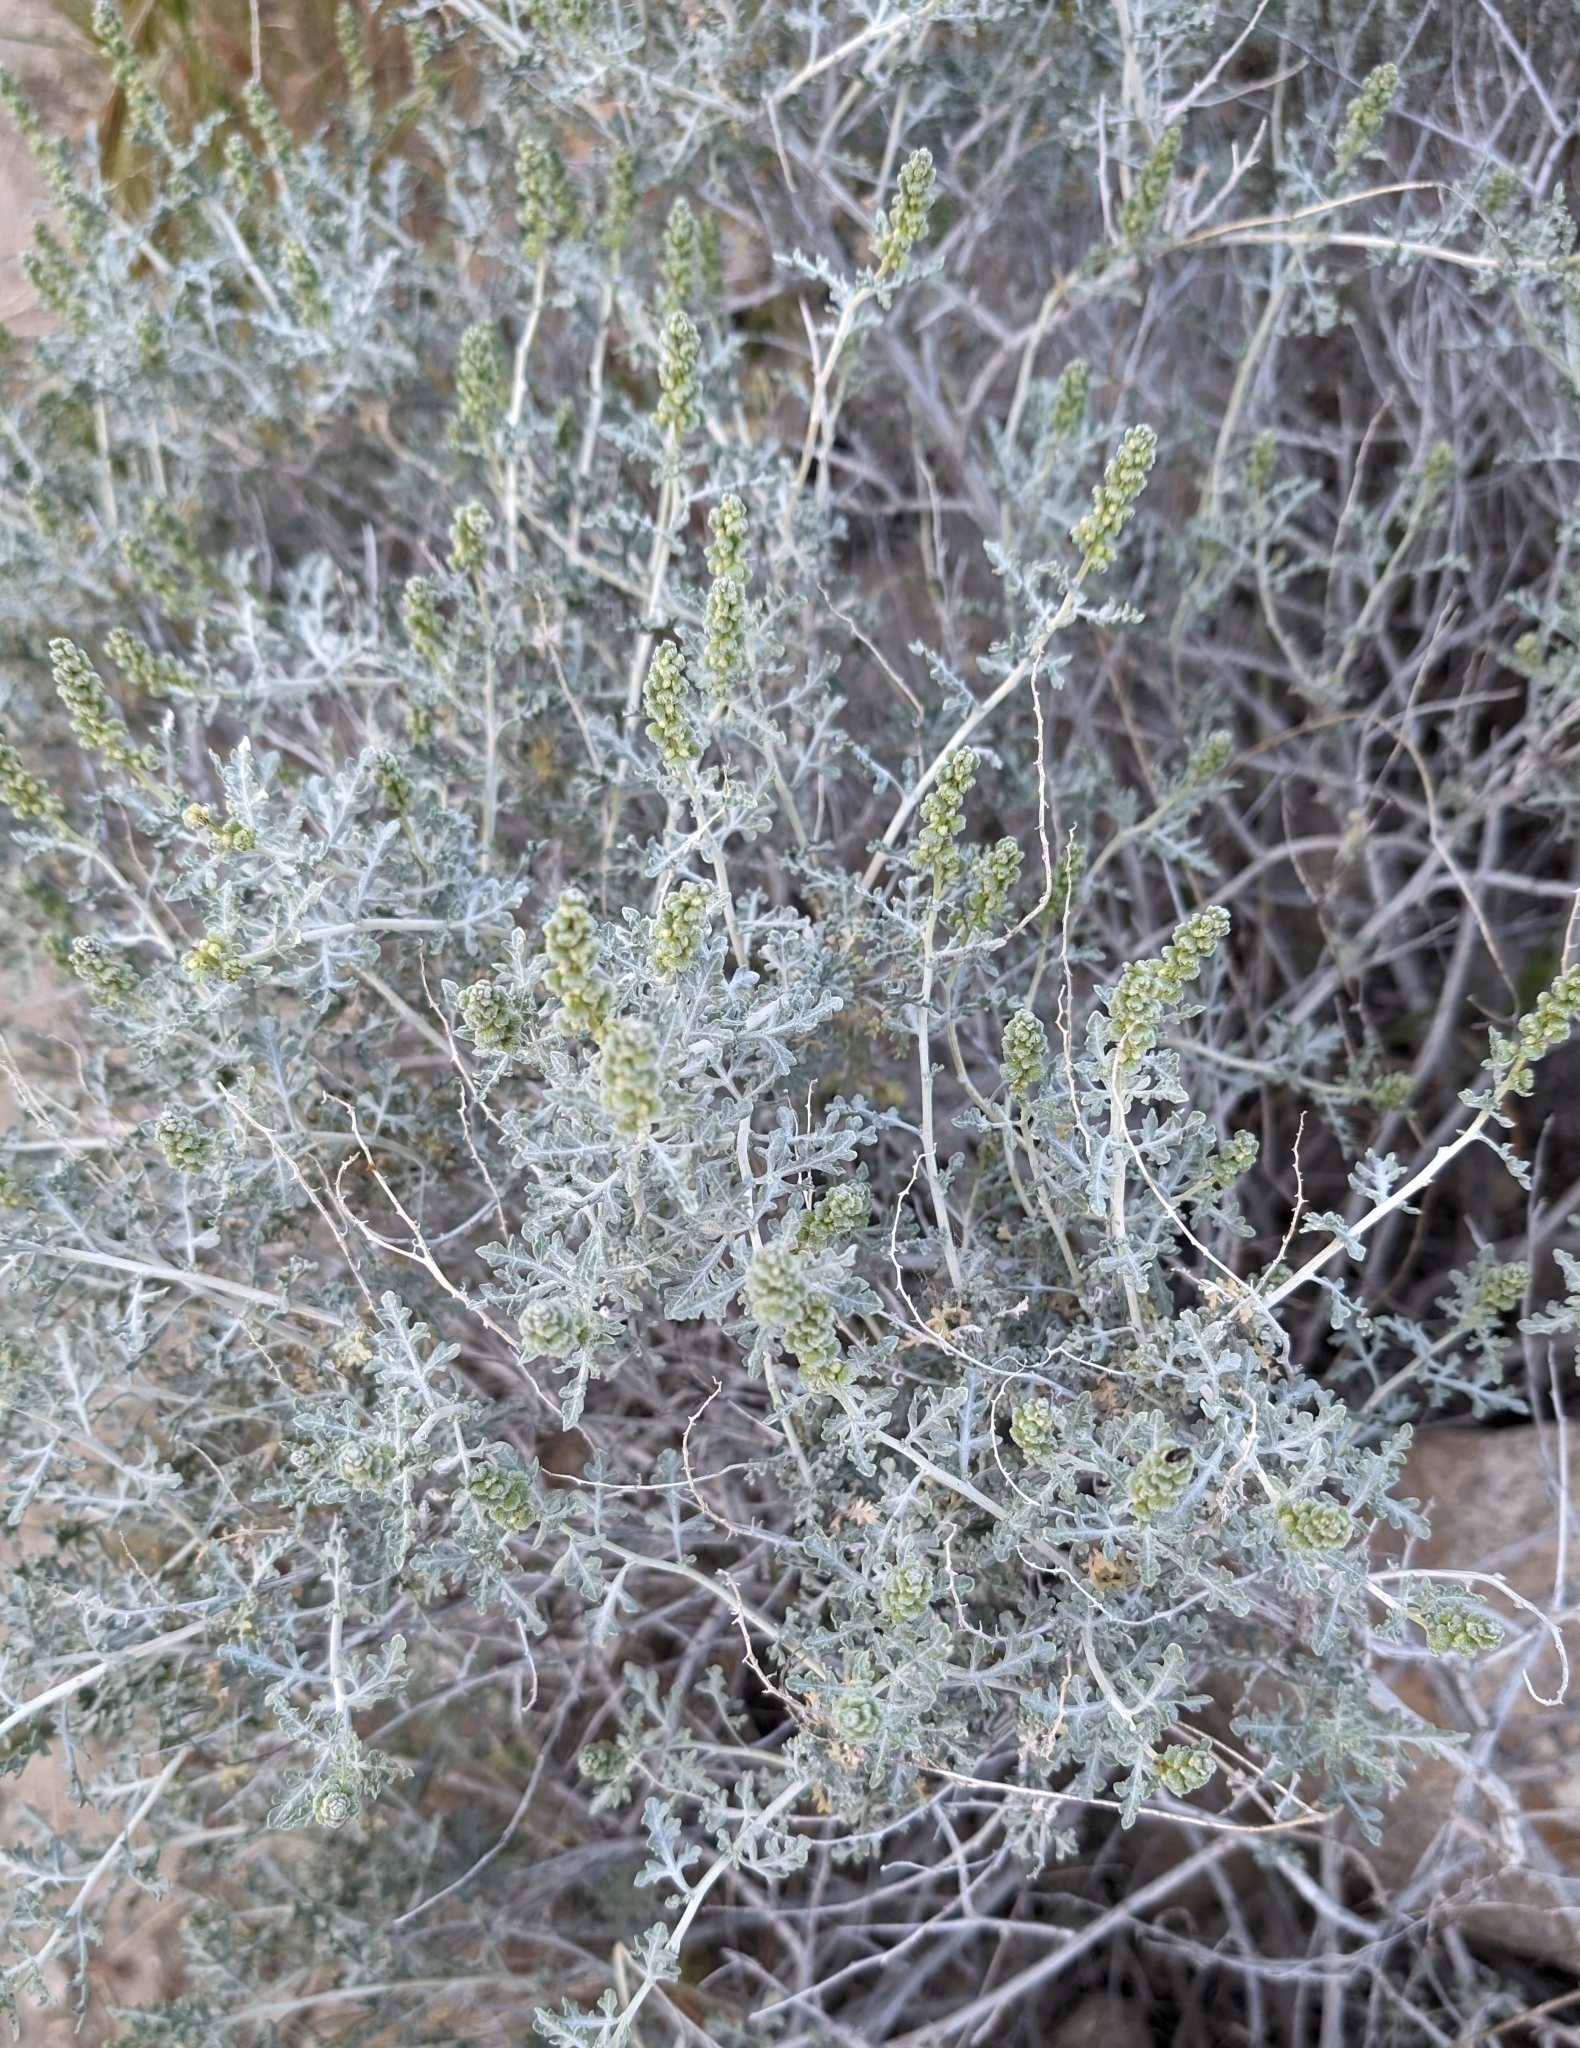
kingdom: Plantae
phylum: Tracheophyta
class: Magnoliopsida
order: Asterales
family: Asteraceae
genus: Ambrosia
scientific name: Ambrosia dumosa
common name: Bur-sage
